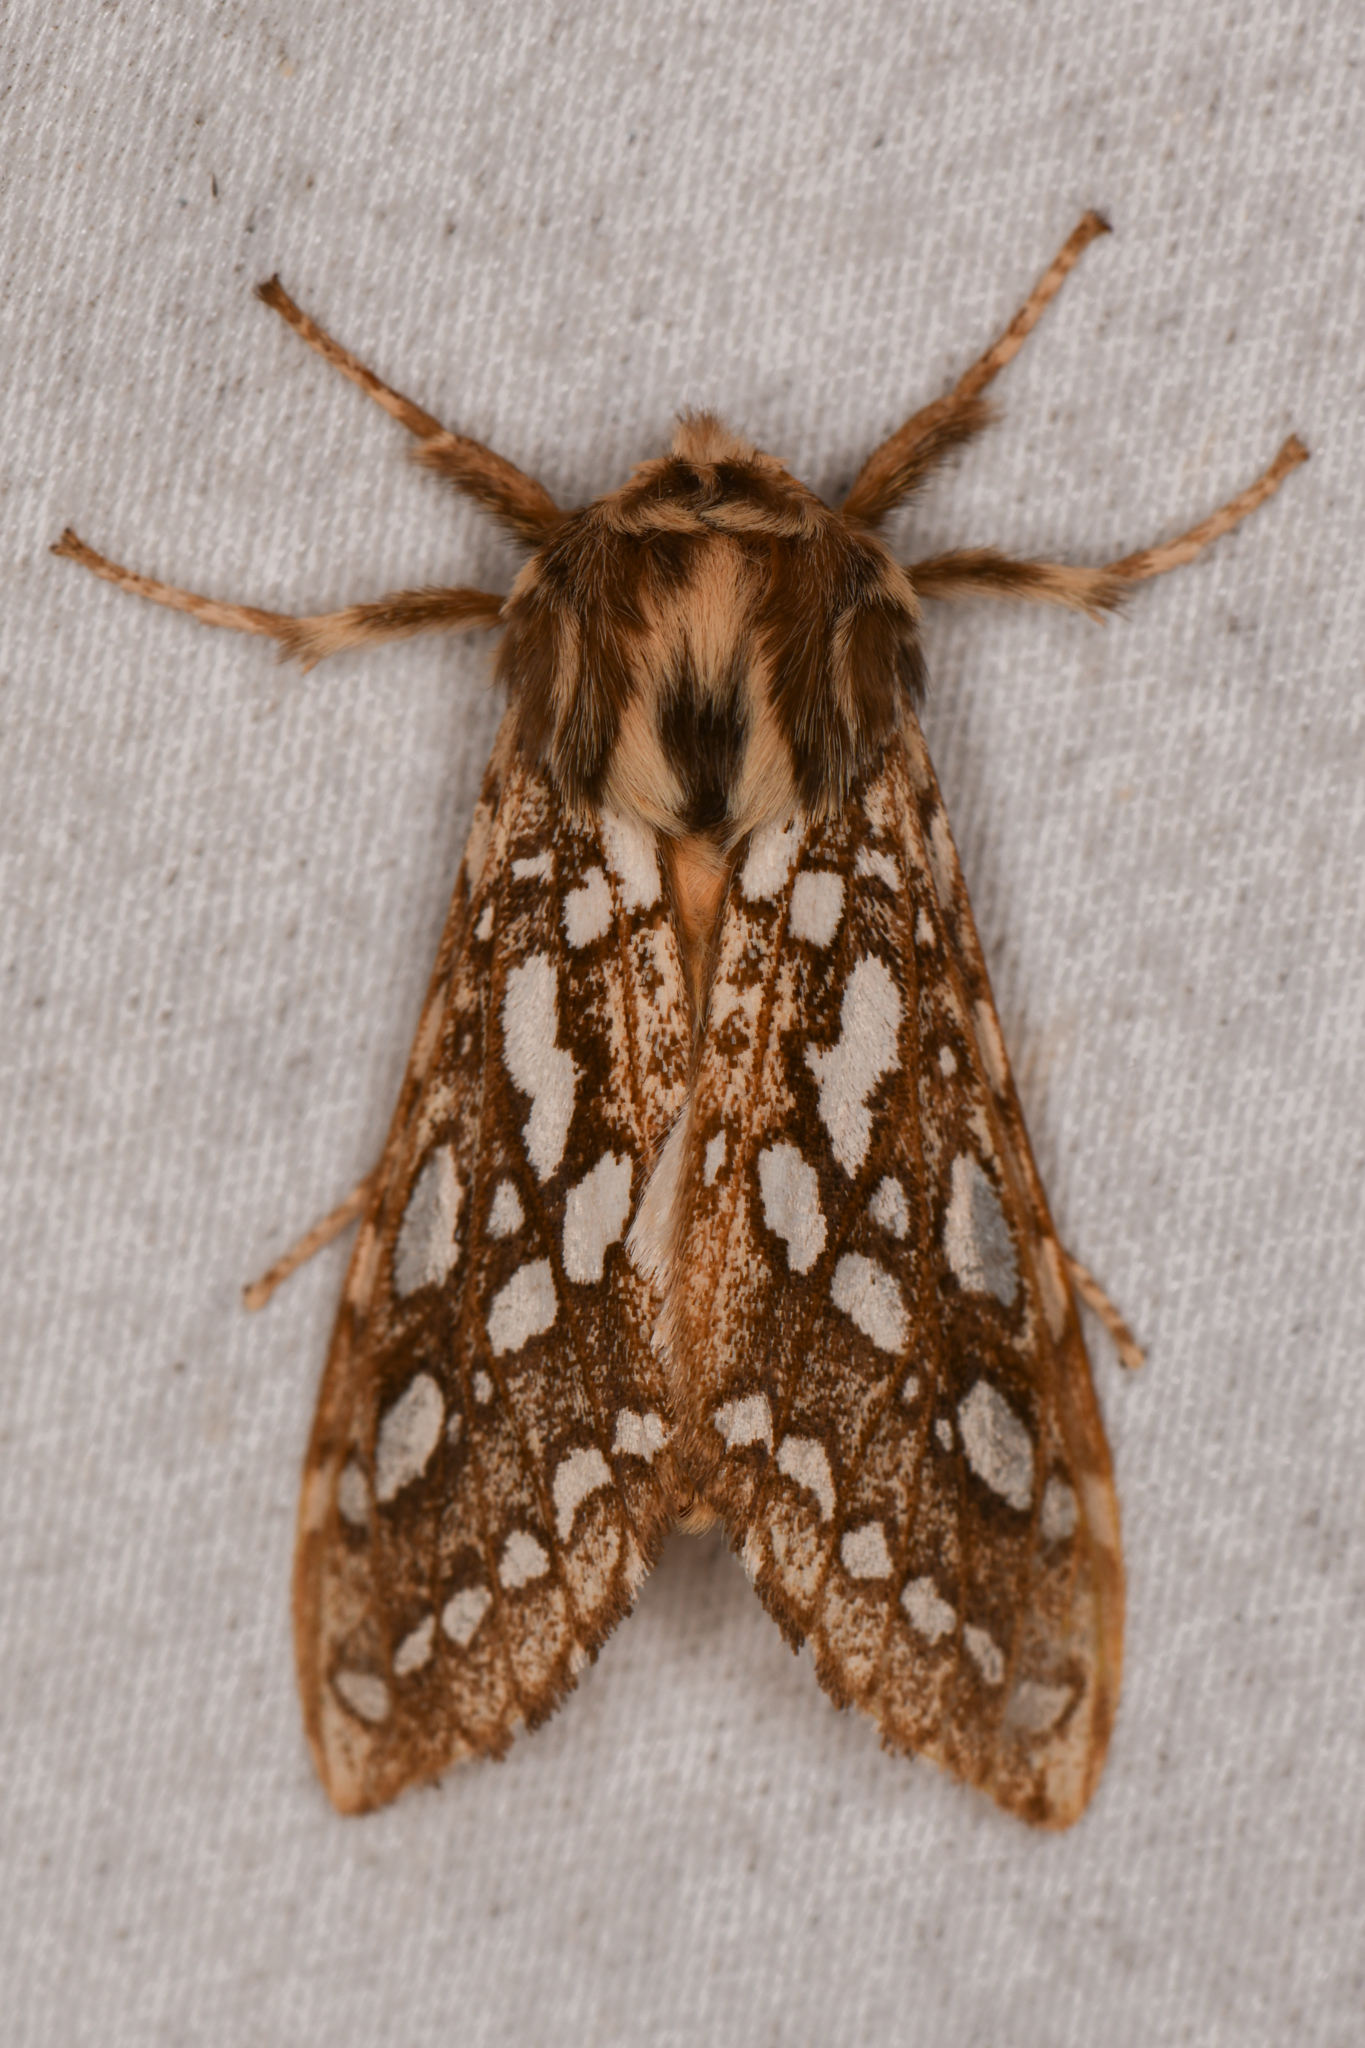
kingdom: Animalia
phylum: Arthropoda
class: Insecta
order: Lepidoptera
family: Erebidae
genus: Lophocampa
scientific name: Lophocampa argentata
